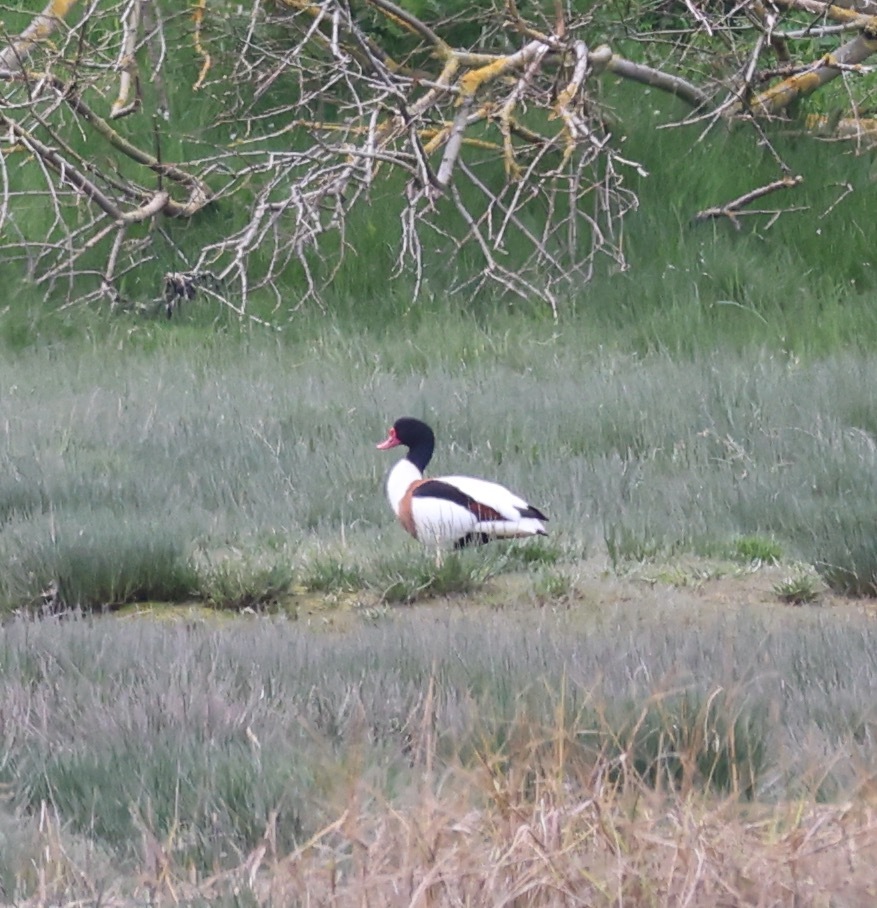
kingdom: Animalia
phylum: Chordata
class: Aves
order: Anseriformes
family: Anatidae
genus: Tadorna
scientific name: Tadorna tadorna
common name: Common shelduck
